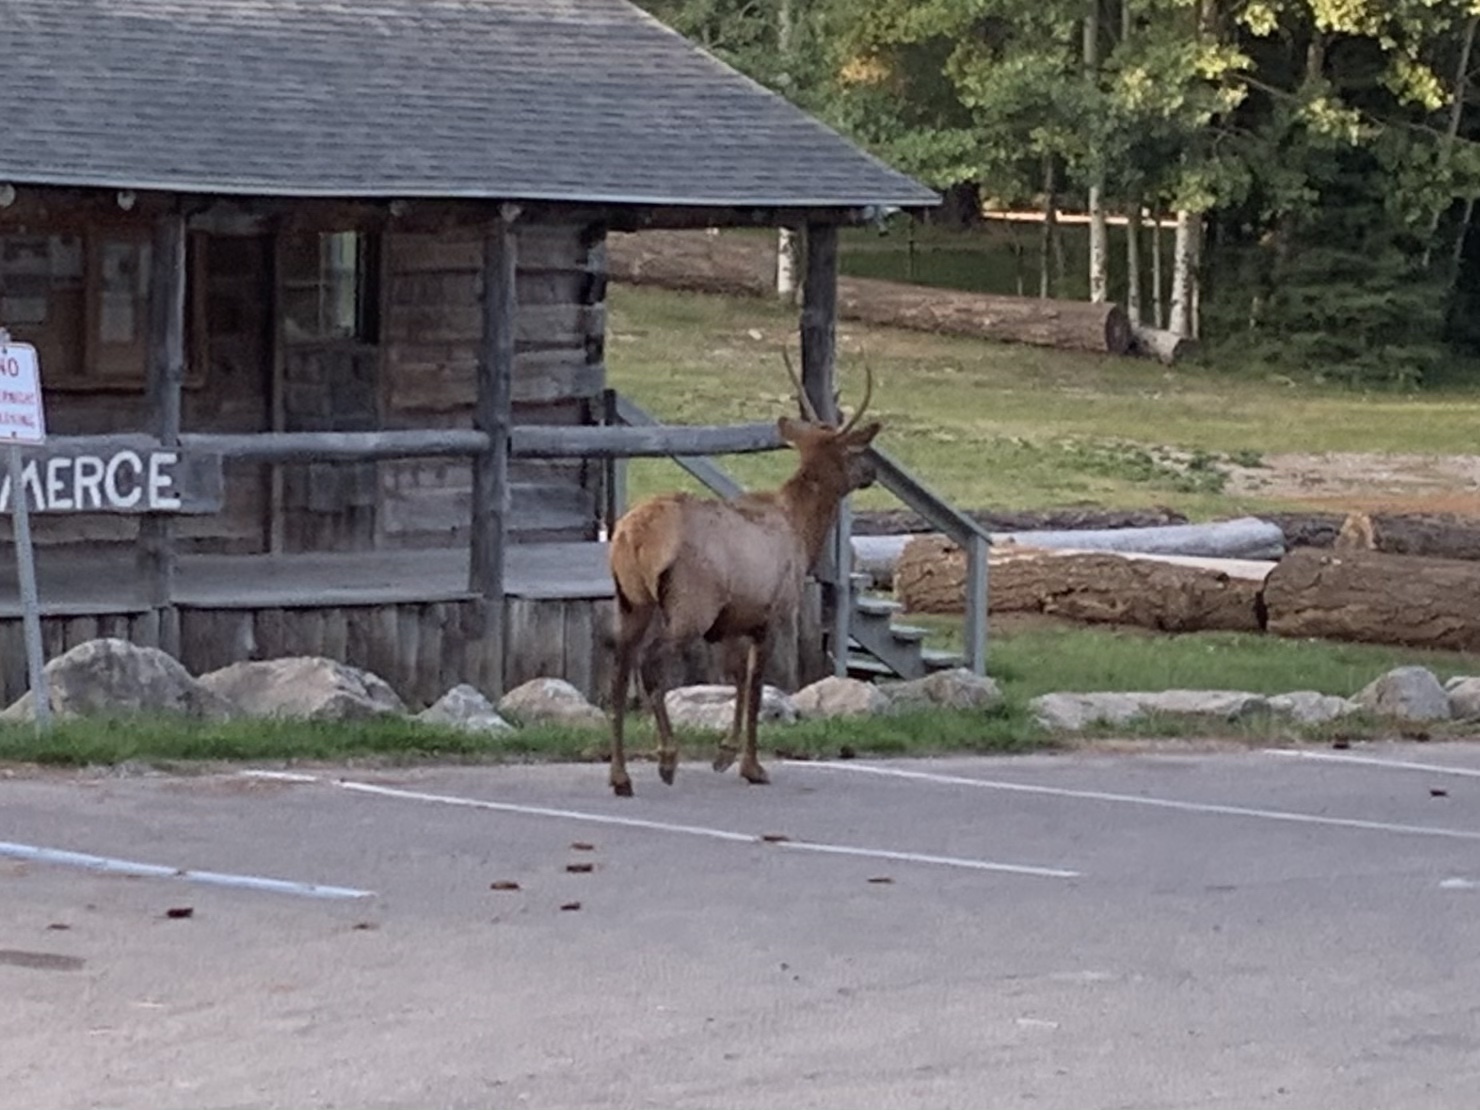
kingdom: Animalia
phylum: Chordata
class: Mammalia
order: Artiodactyla
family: Cervidae
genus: Cervus
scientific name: Cervus elaphus
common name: Red deer
